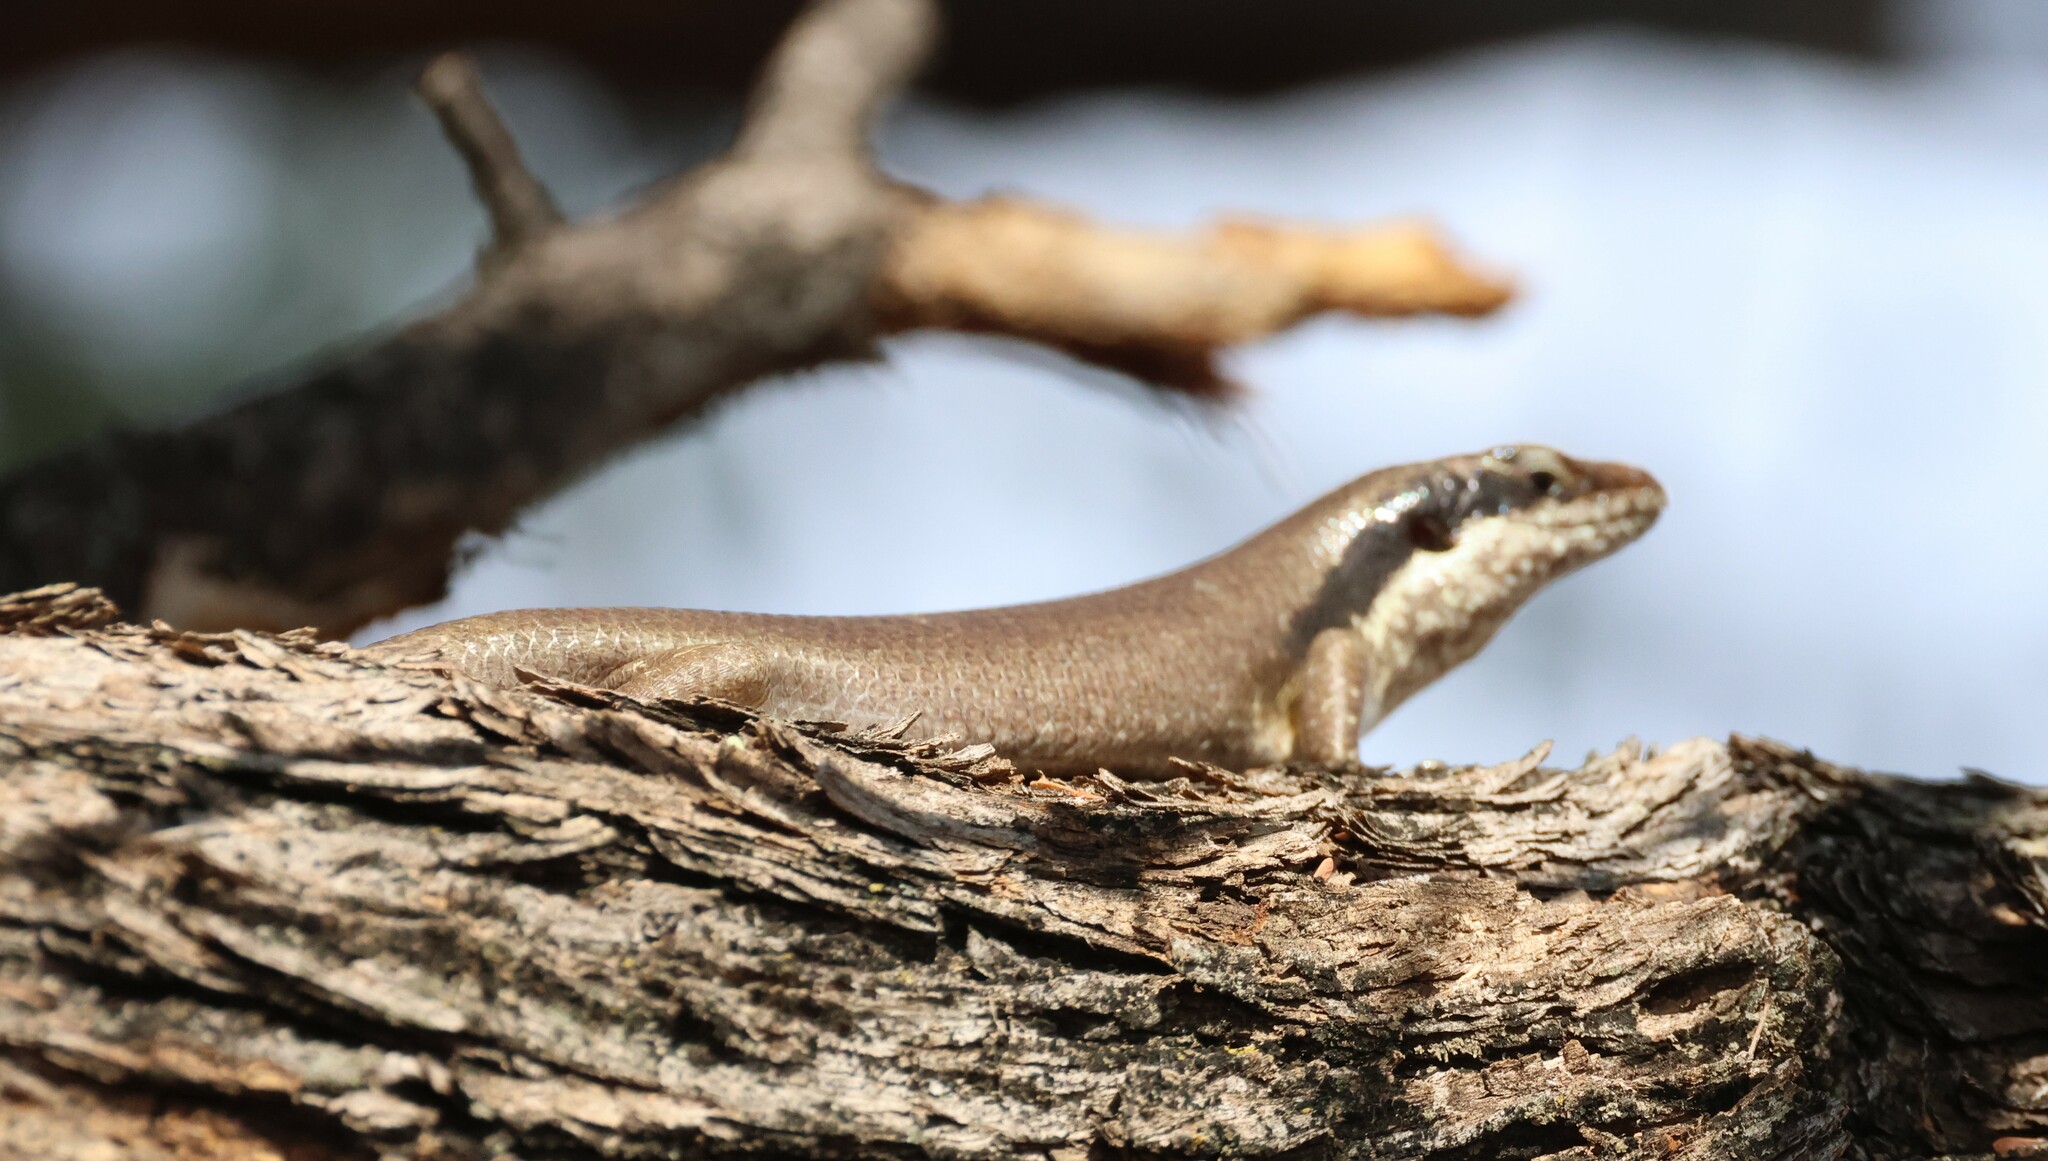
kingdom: Animalia
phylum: Chordata
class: Squamata
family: Scincidae
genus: Trachylepis
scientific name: Trachylepis binotata
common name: Bocage's mabuya
